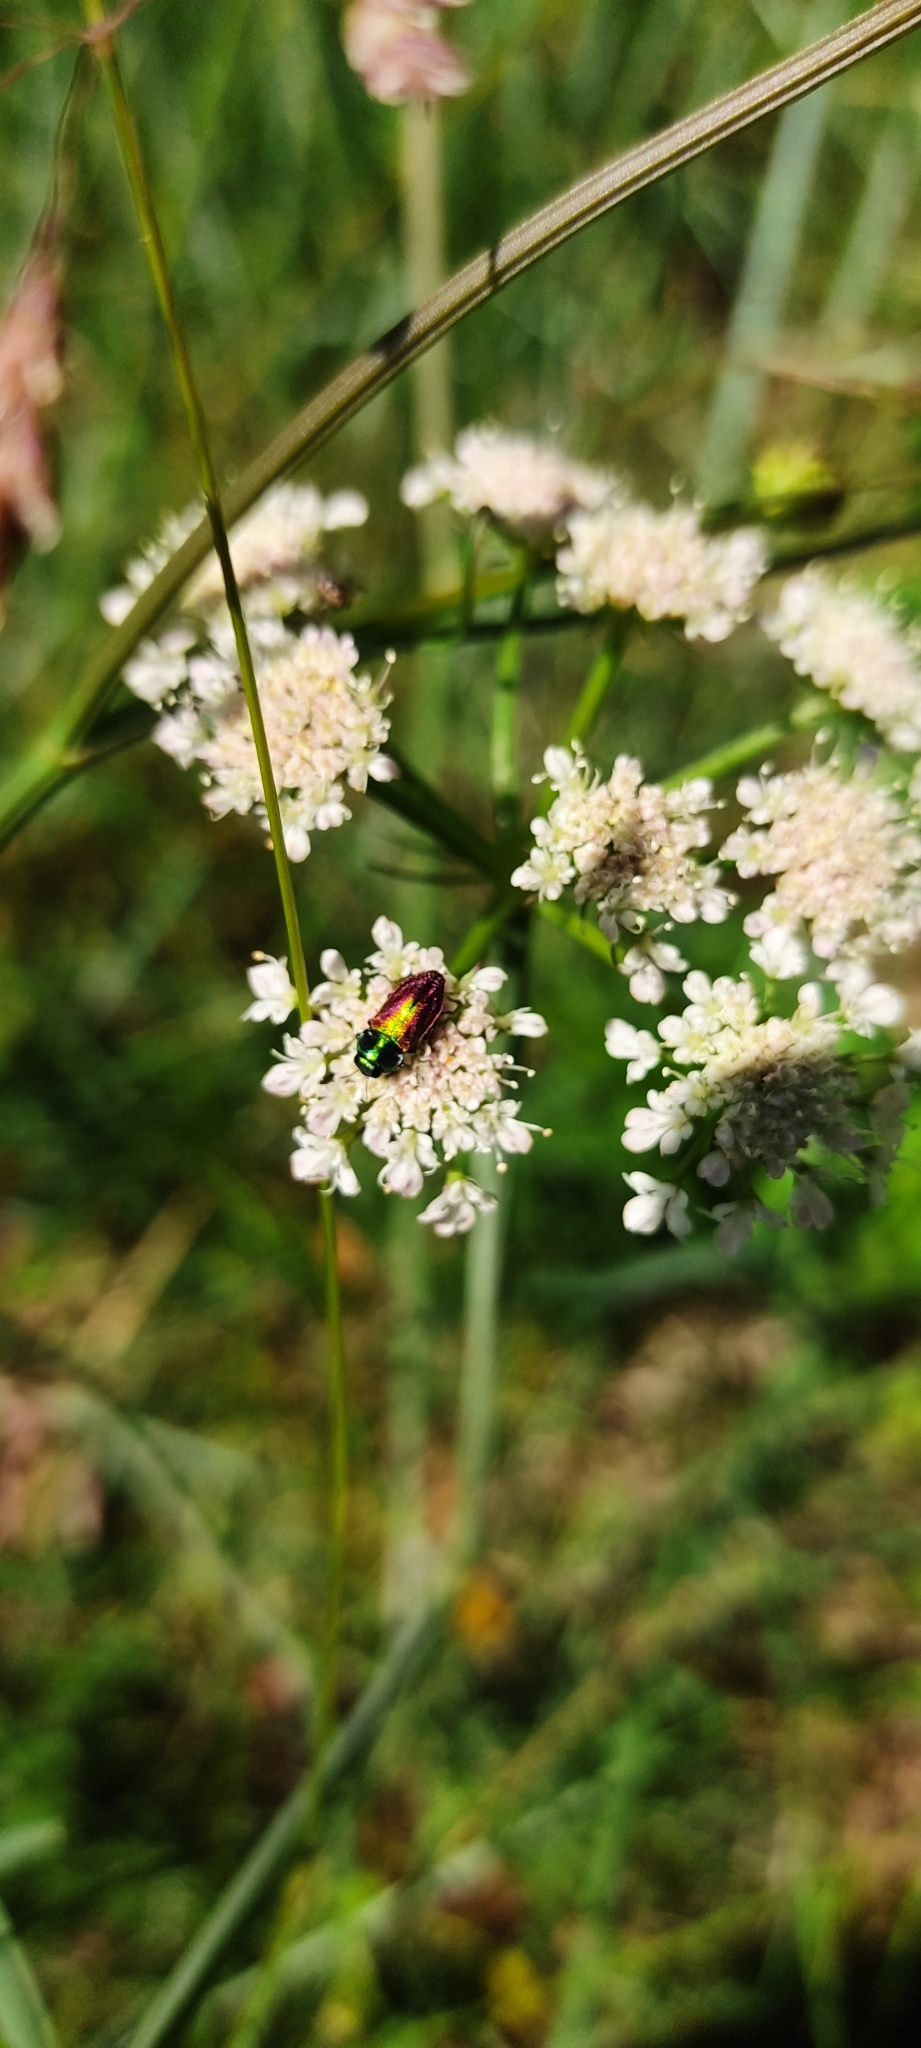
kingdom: Animalia
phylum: Arthropoda
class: Insecta
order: Coleoptera
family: Buprestidae
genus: Anthaxia
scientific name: Anthaxia fulgurans
